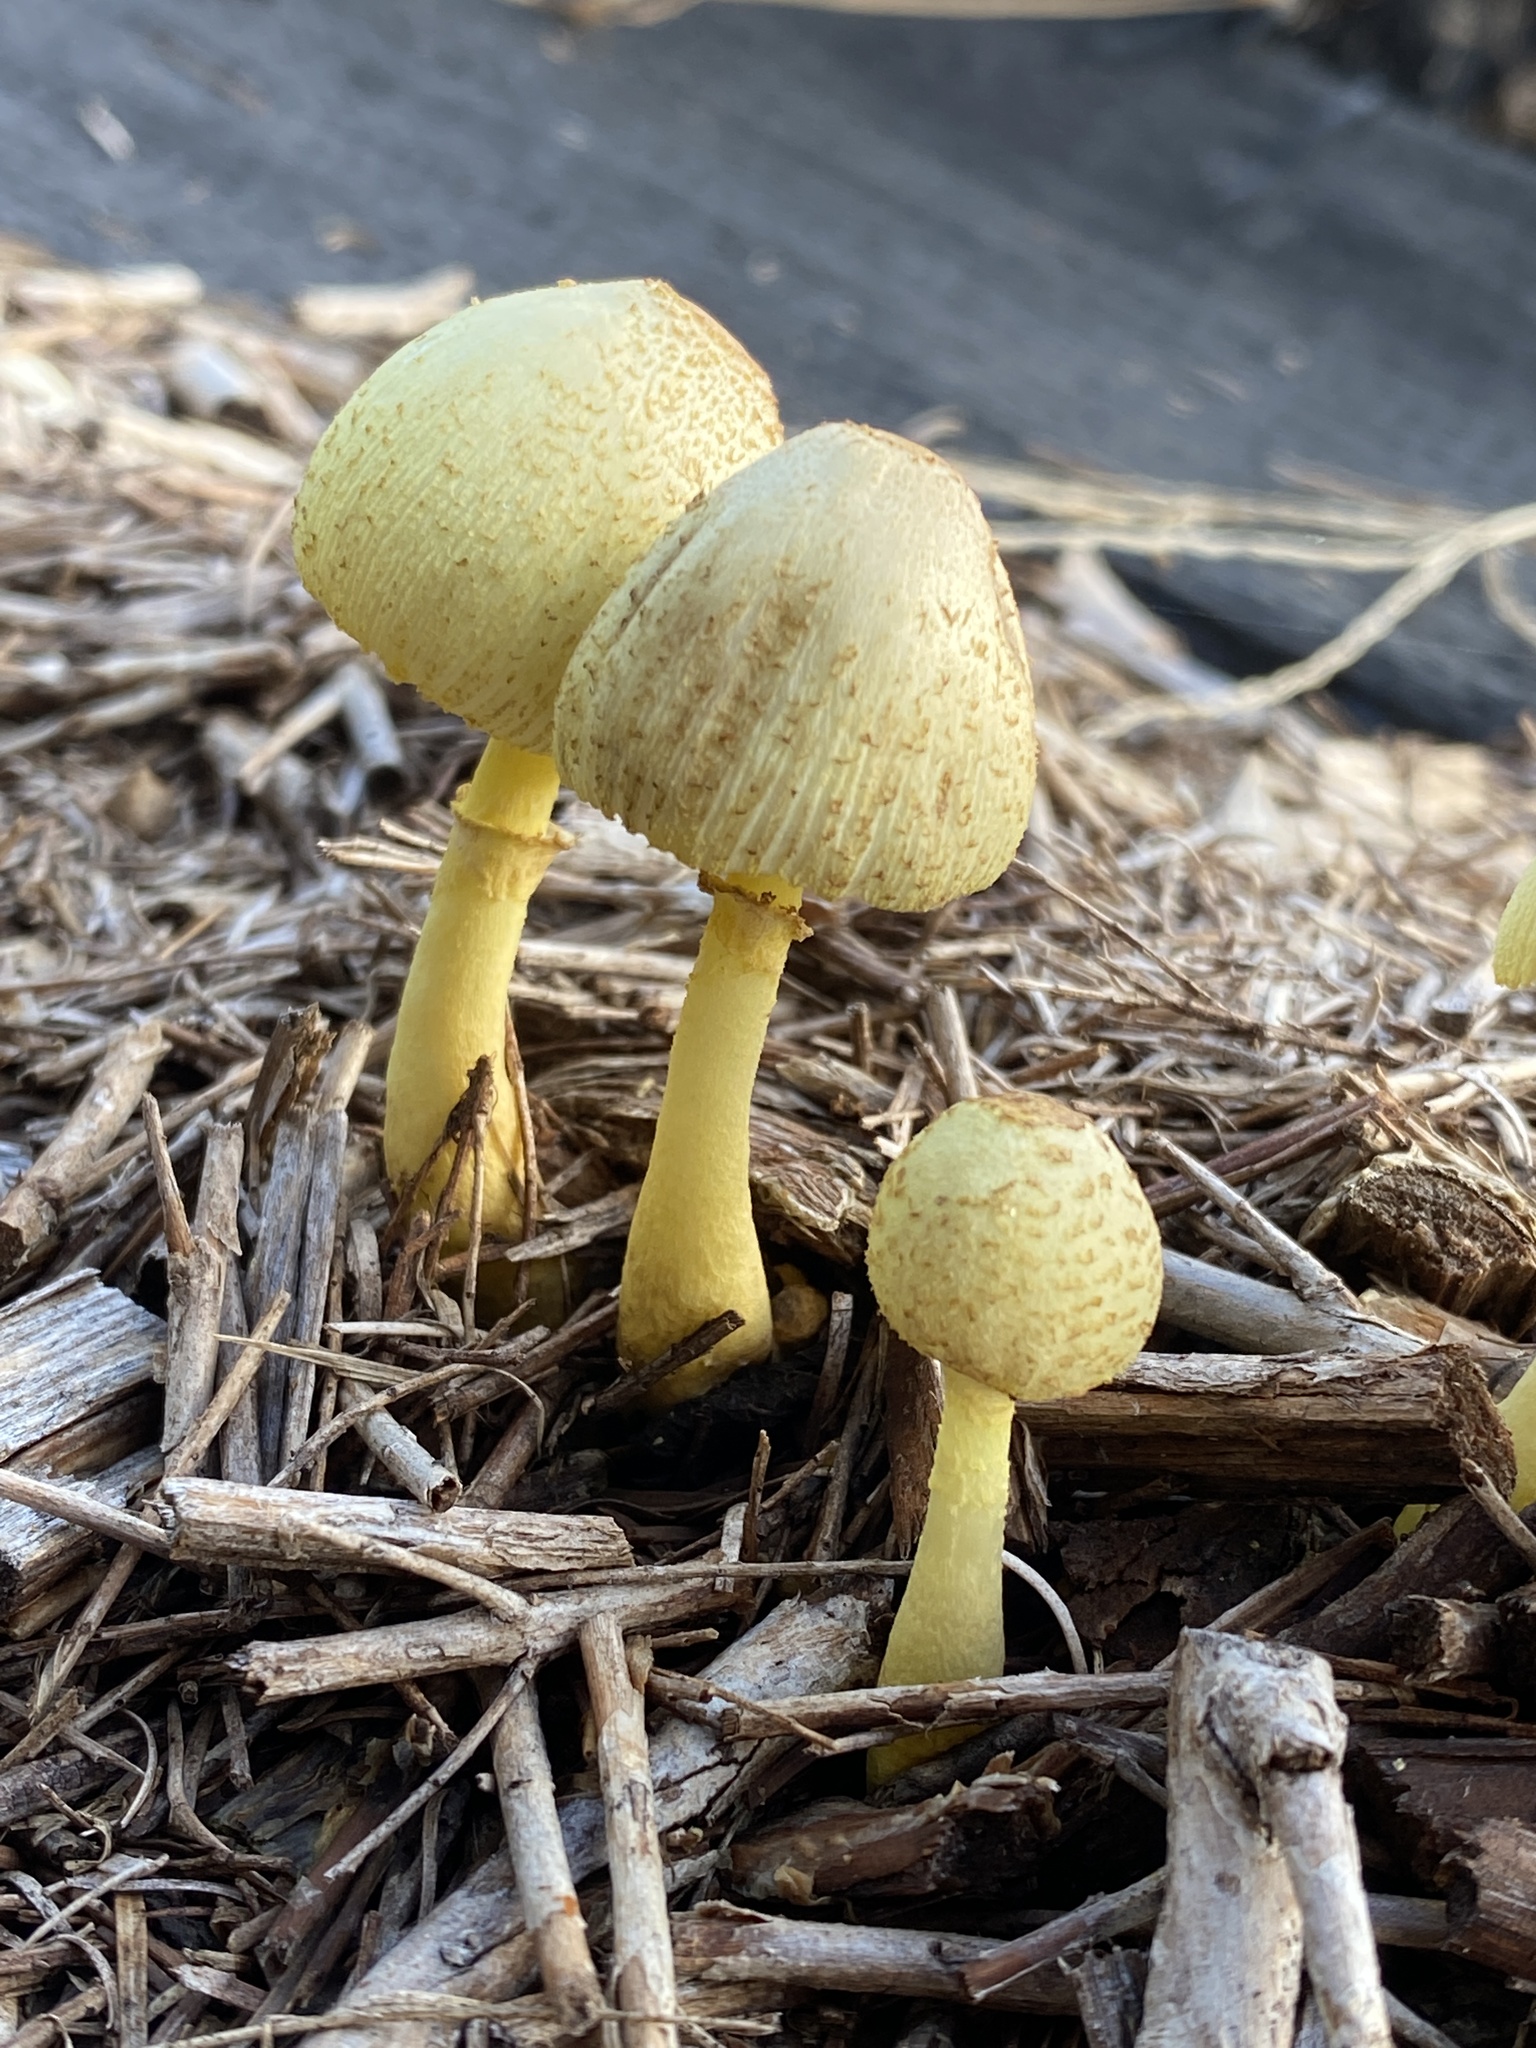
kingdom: Fungi
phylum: Basidiomycota
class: Agaricomycetes
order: Agaricales
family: Agaricaceae
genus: Leucocoprinus
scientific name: Leucocoprinus birnbaumii
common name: Plantpot dapperling
